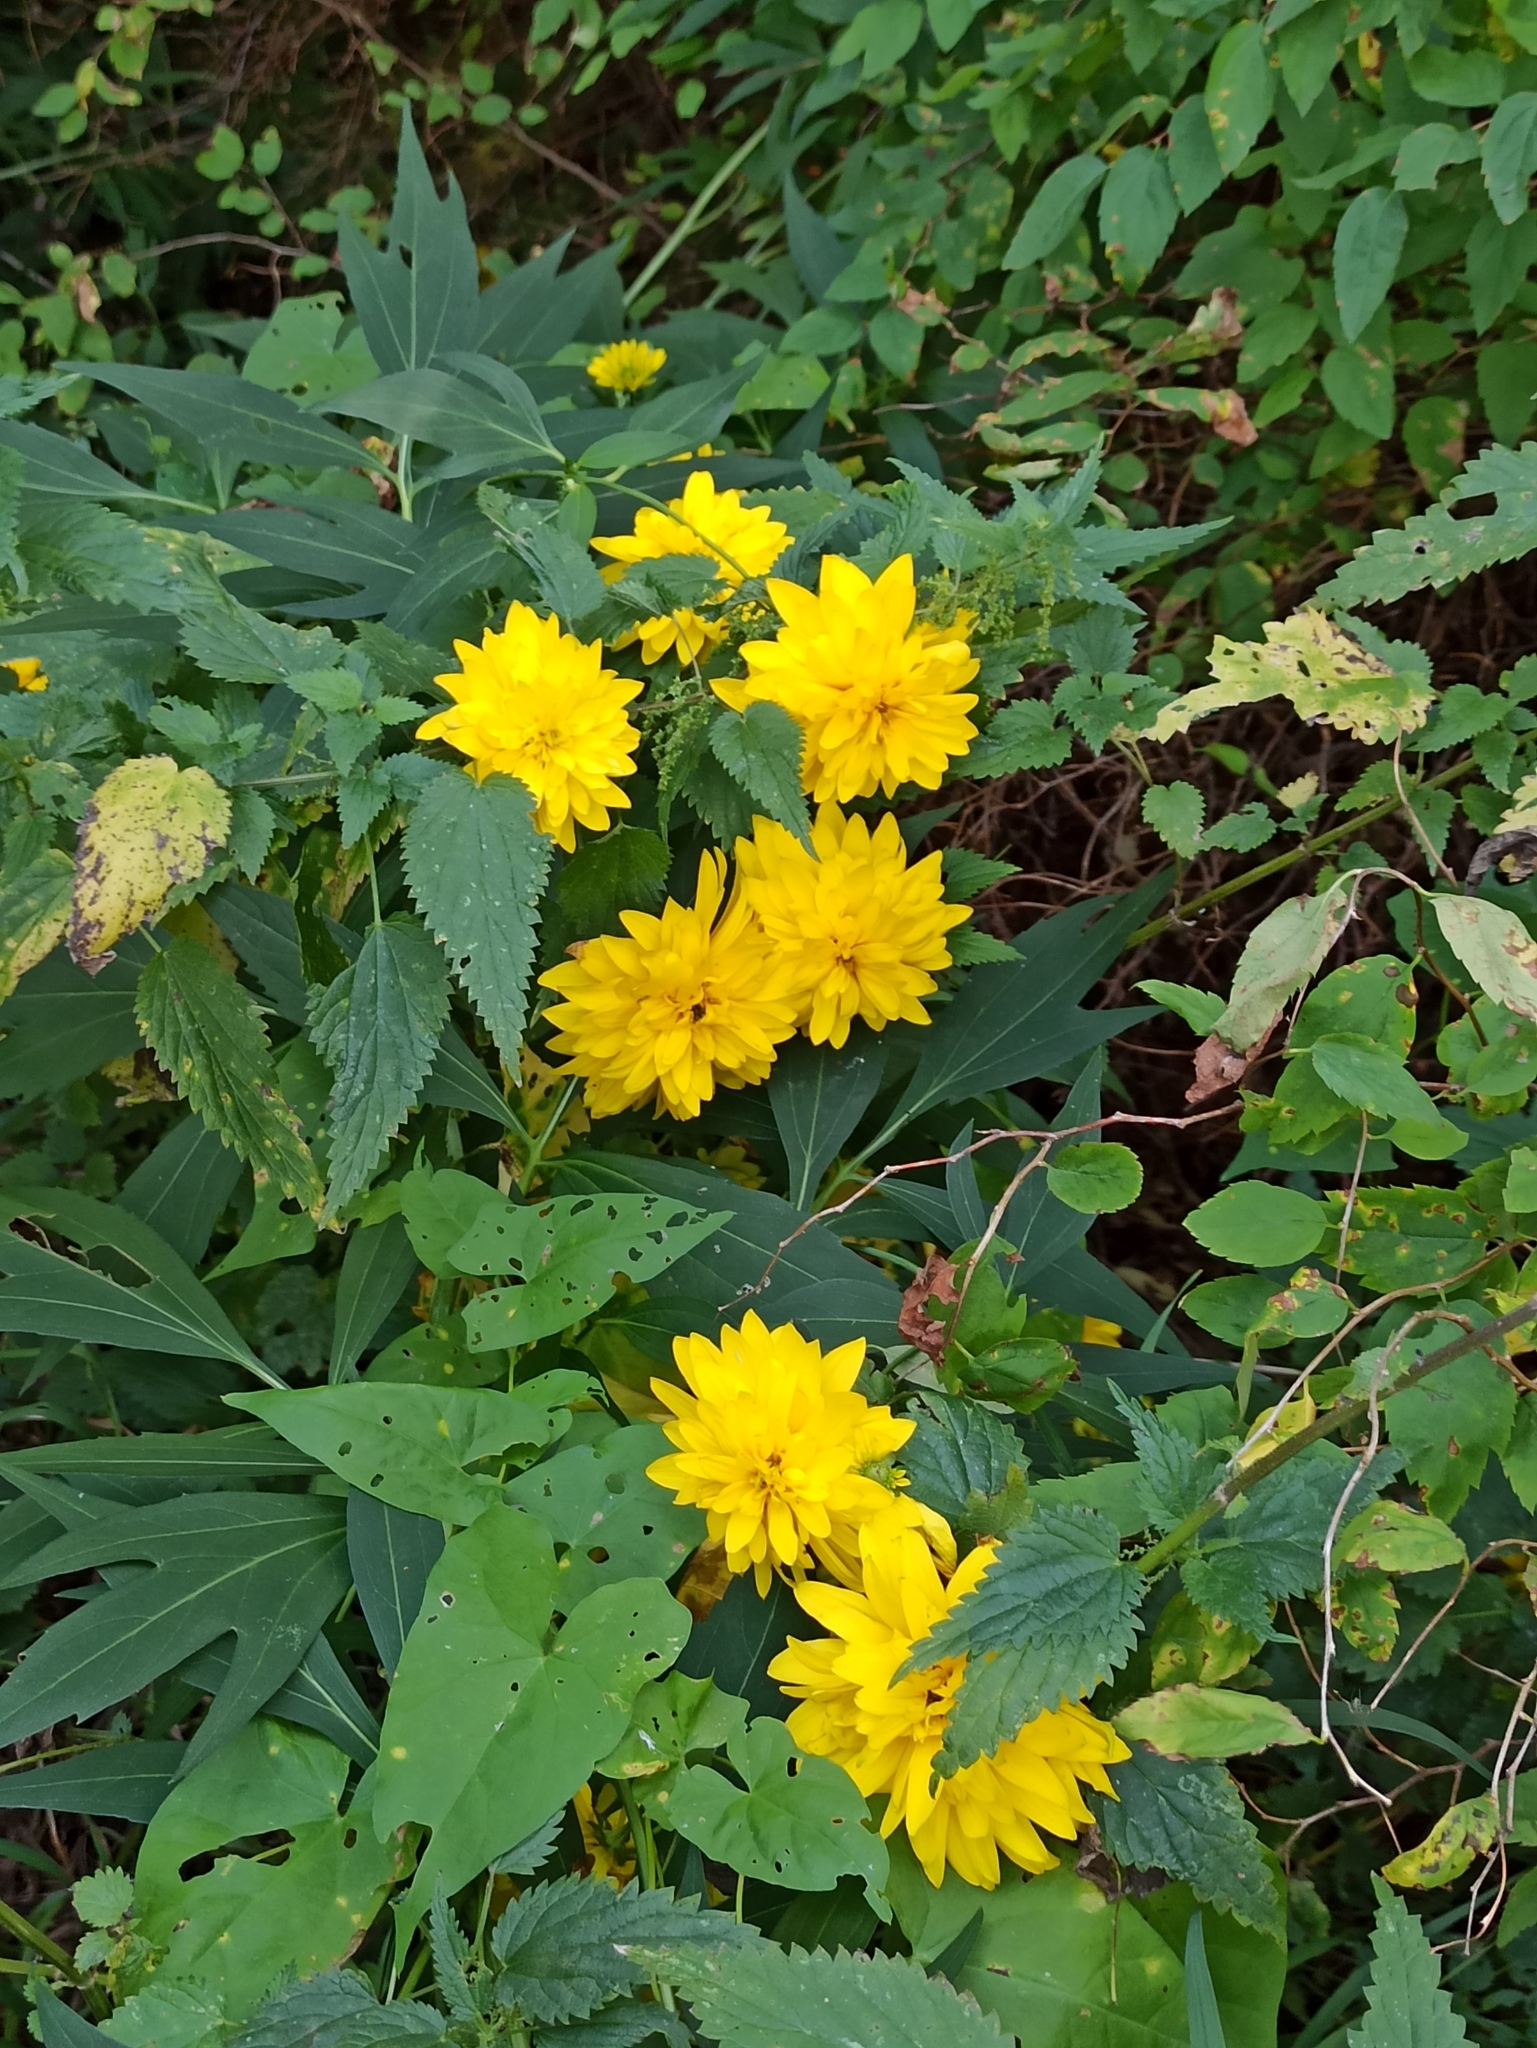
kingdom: Plantae
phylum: Tracheophyta
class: Magnoliopsida
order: Asterales
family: Asteraceae
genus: Rudbeckia
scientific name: Rudbeckia laciniata
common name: Coneflower
